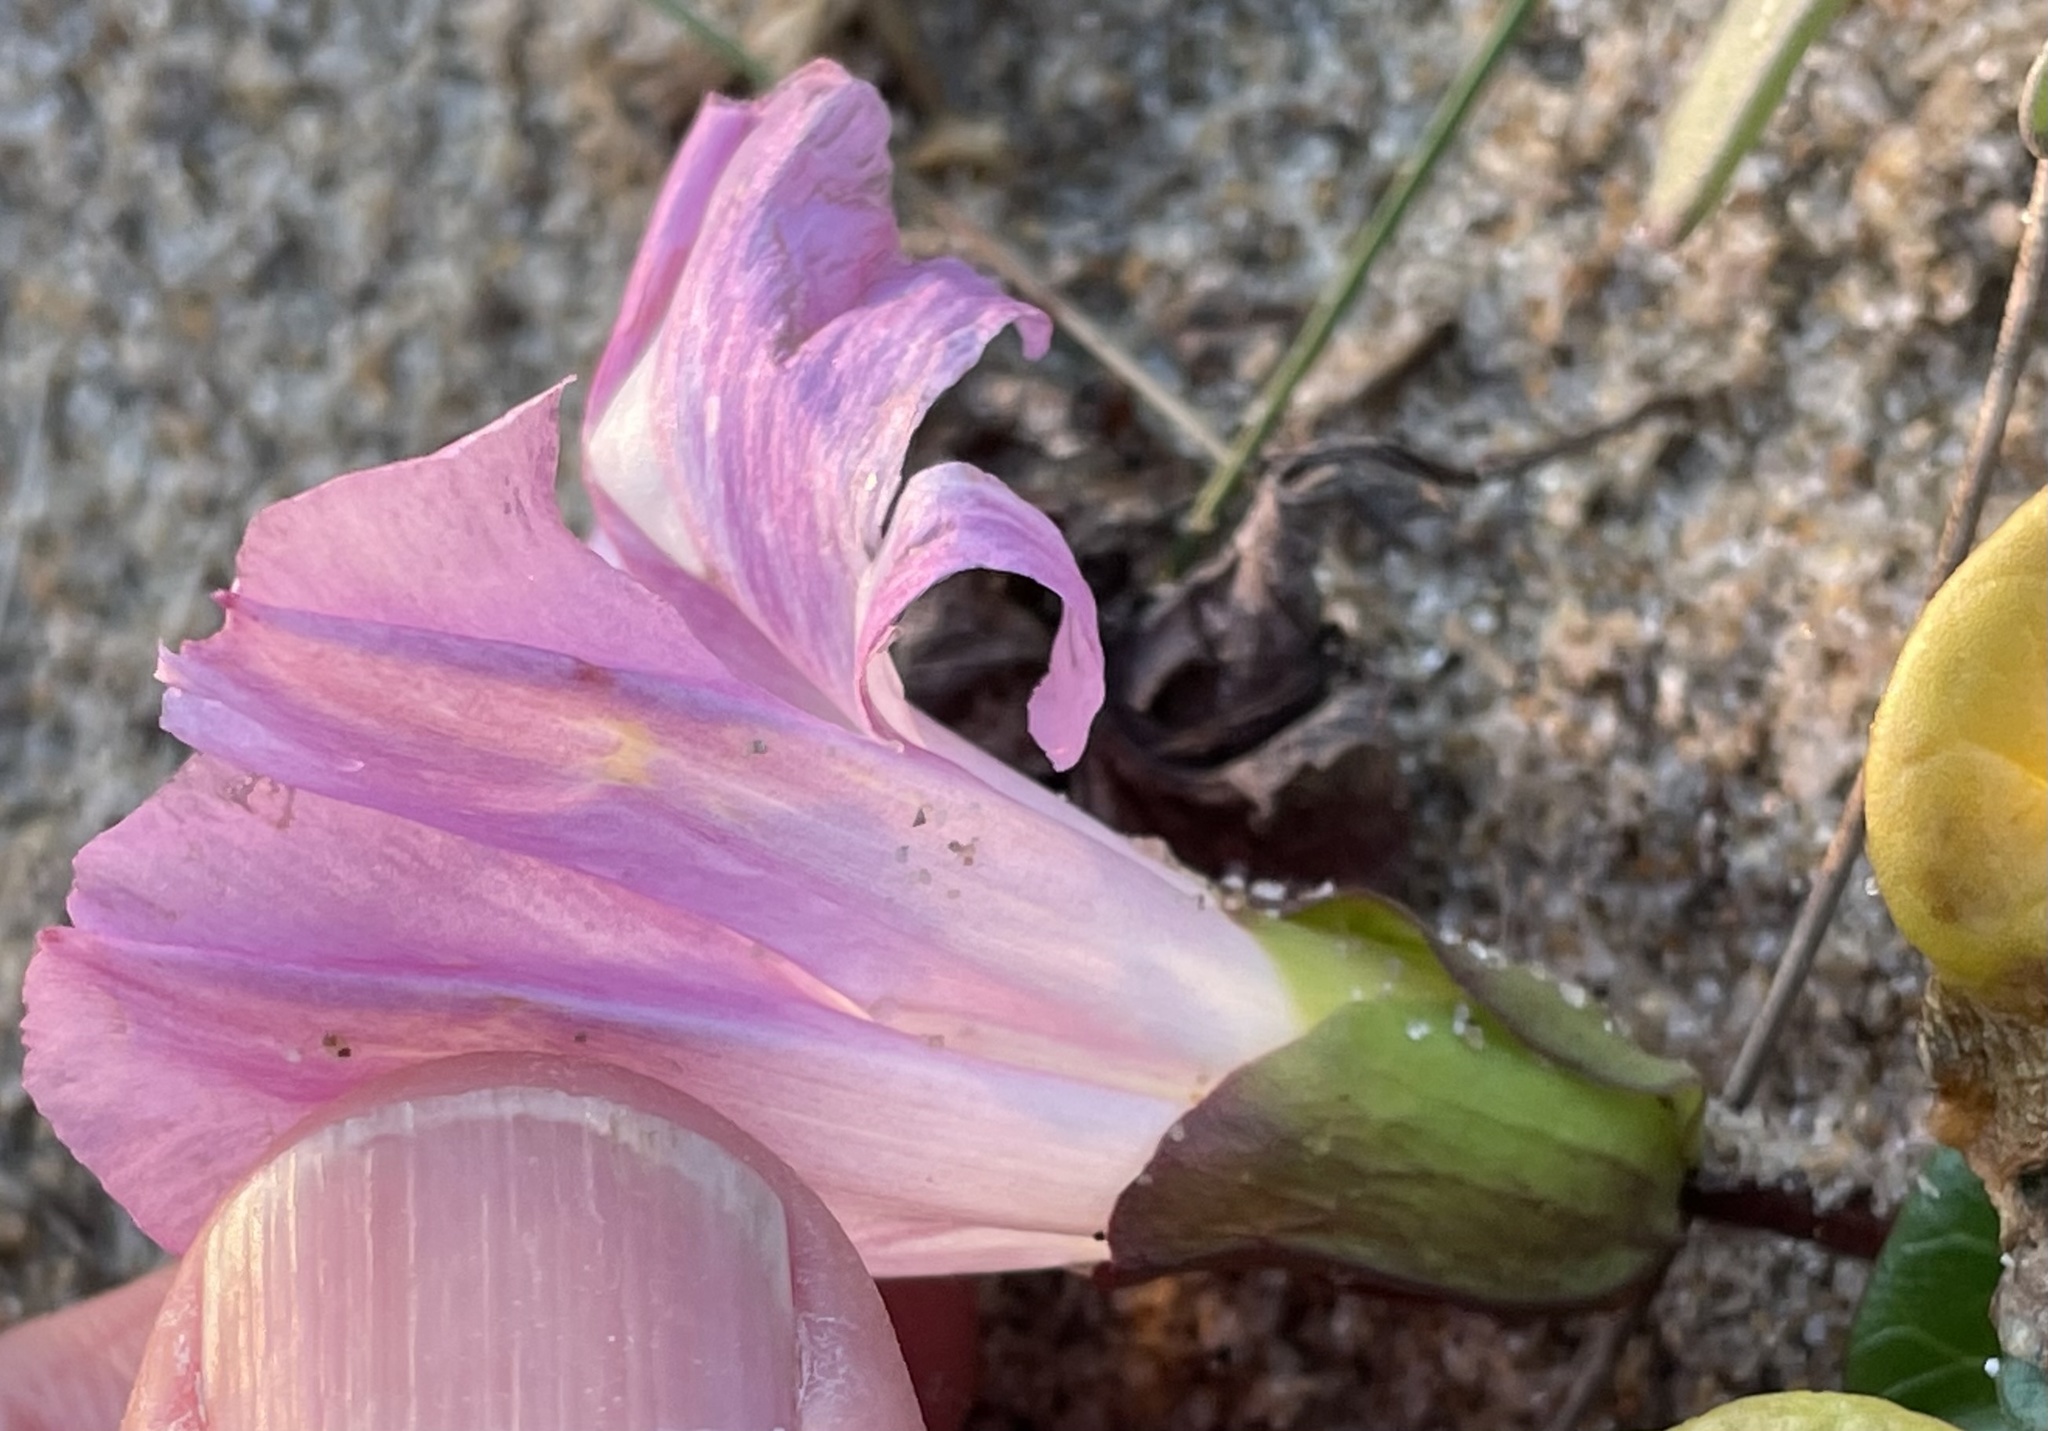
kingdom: Plantae
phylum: Tracheophyta
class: Magnoliopsida
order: Solanales
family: Convolvulaceae
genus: Calystegia
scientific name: Calystegia soldanella
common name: Sea bindweed
